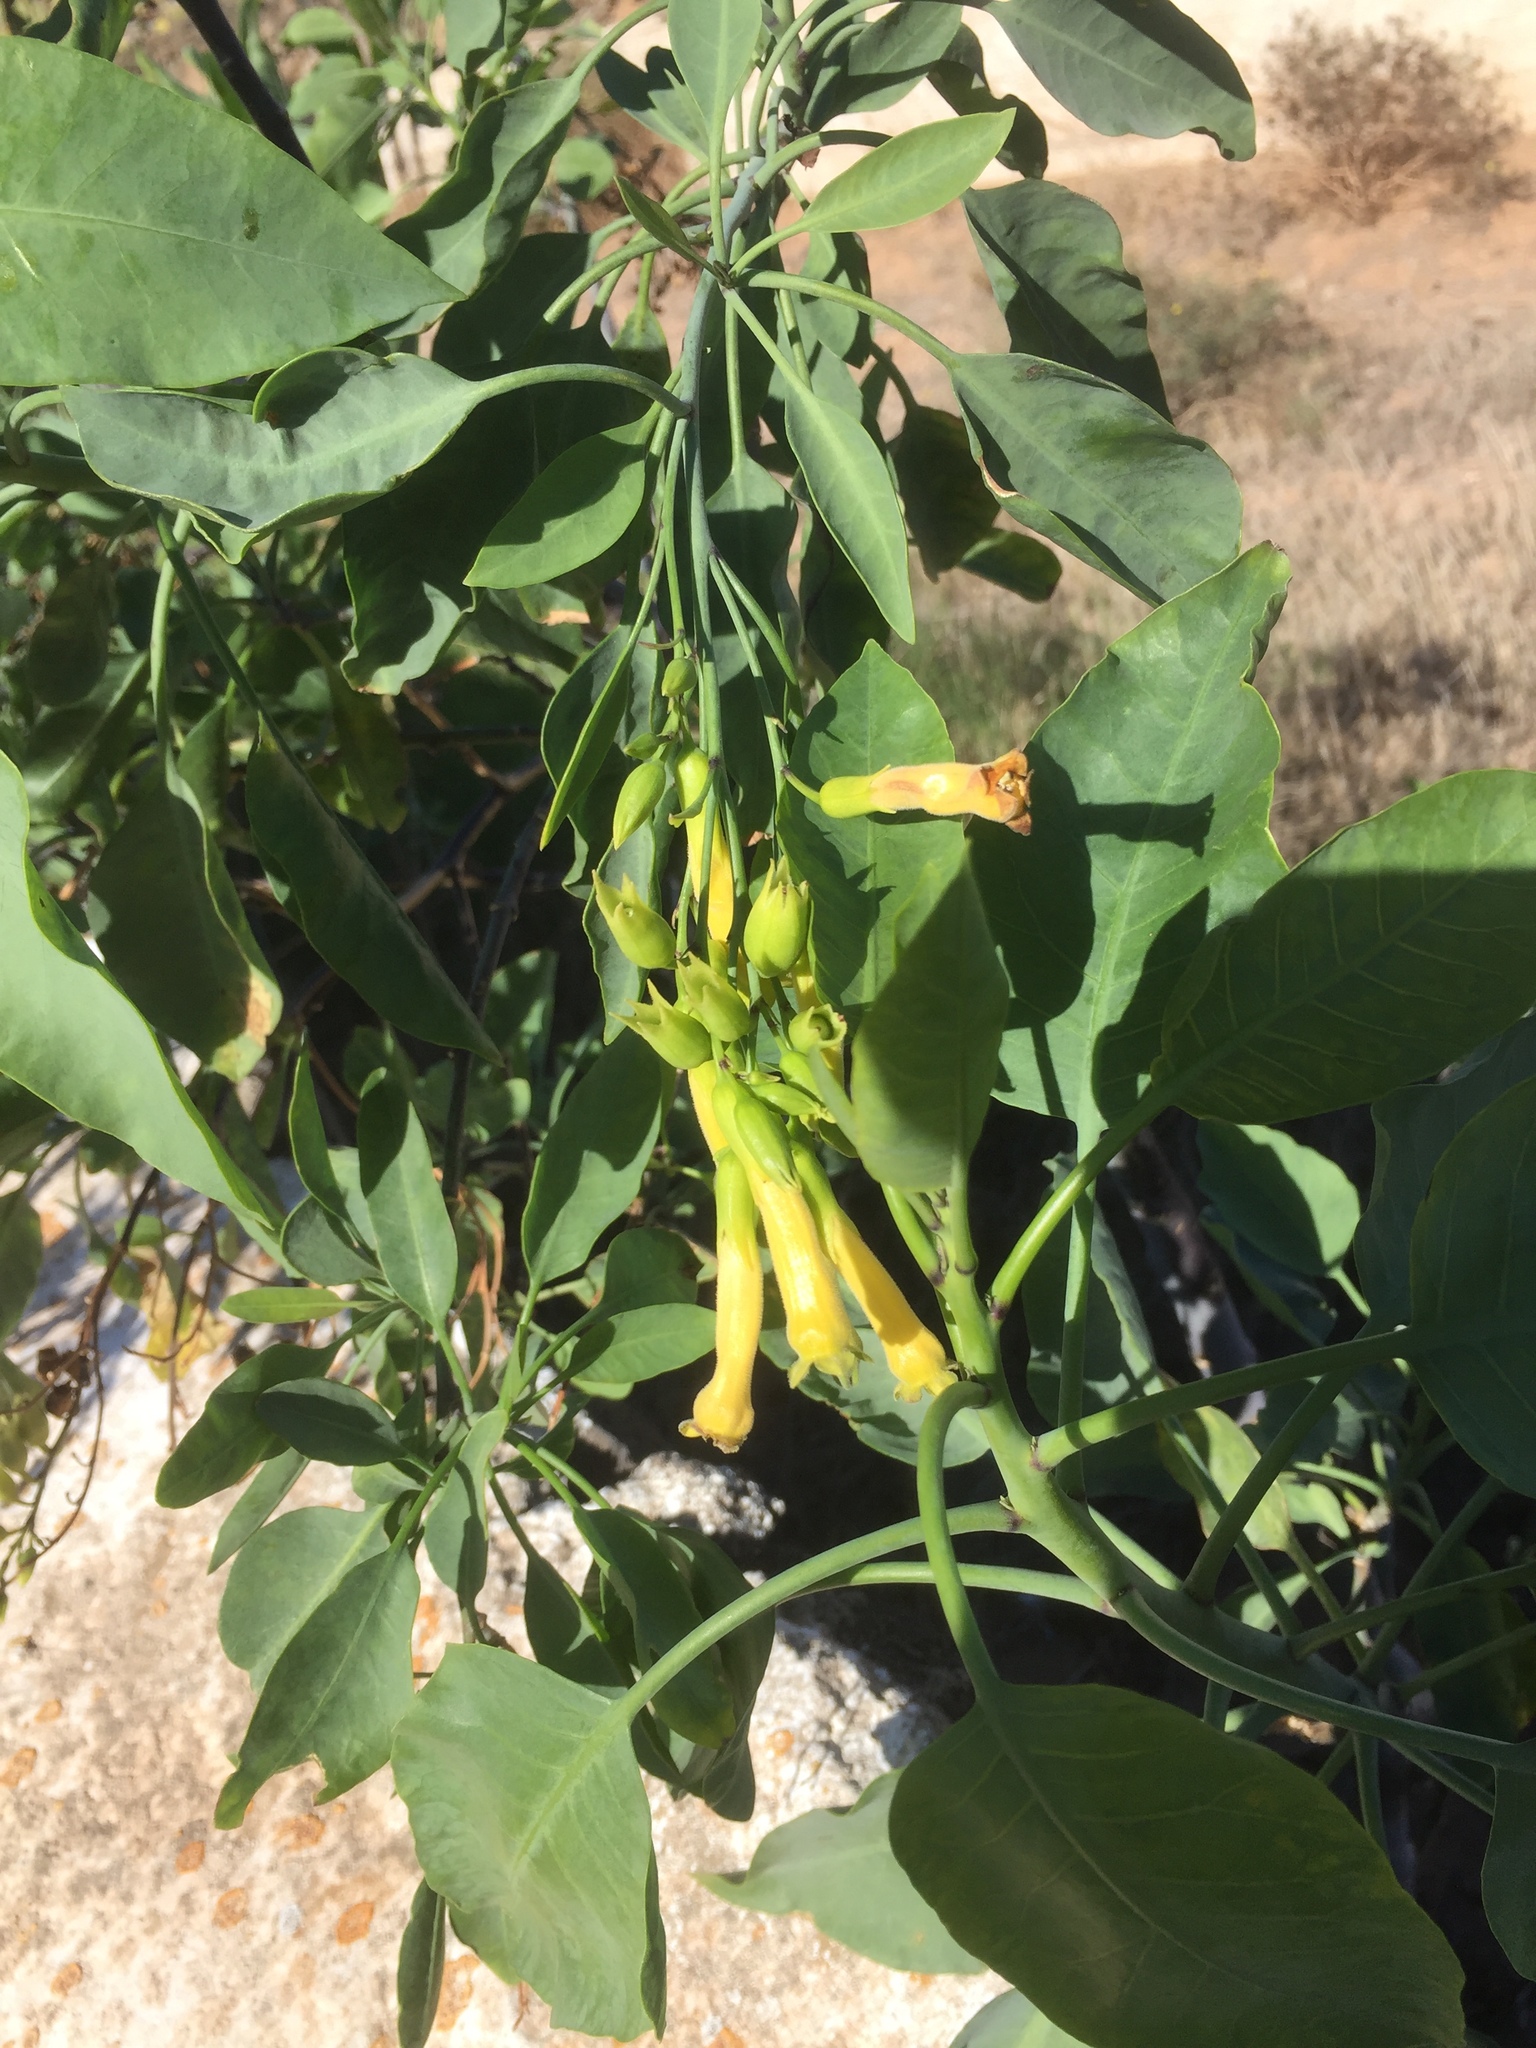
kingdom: Plantae
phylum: Tracheophyta
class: Magnoliopsida
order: Solanales
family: Solanaceae
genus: Nicotiana
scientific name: Nicotiana glauca
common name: Tree tobacco
